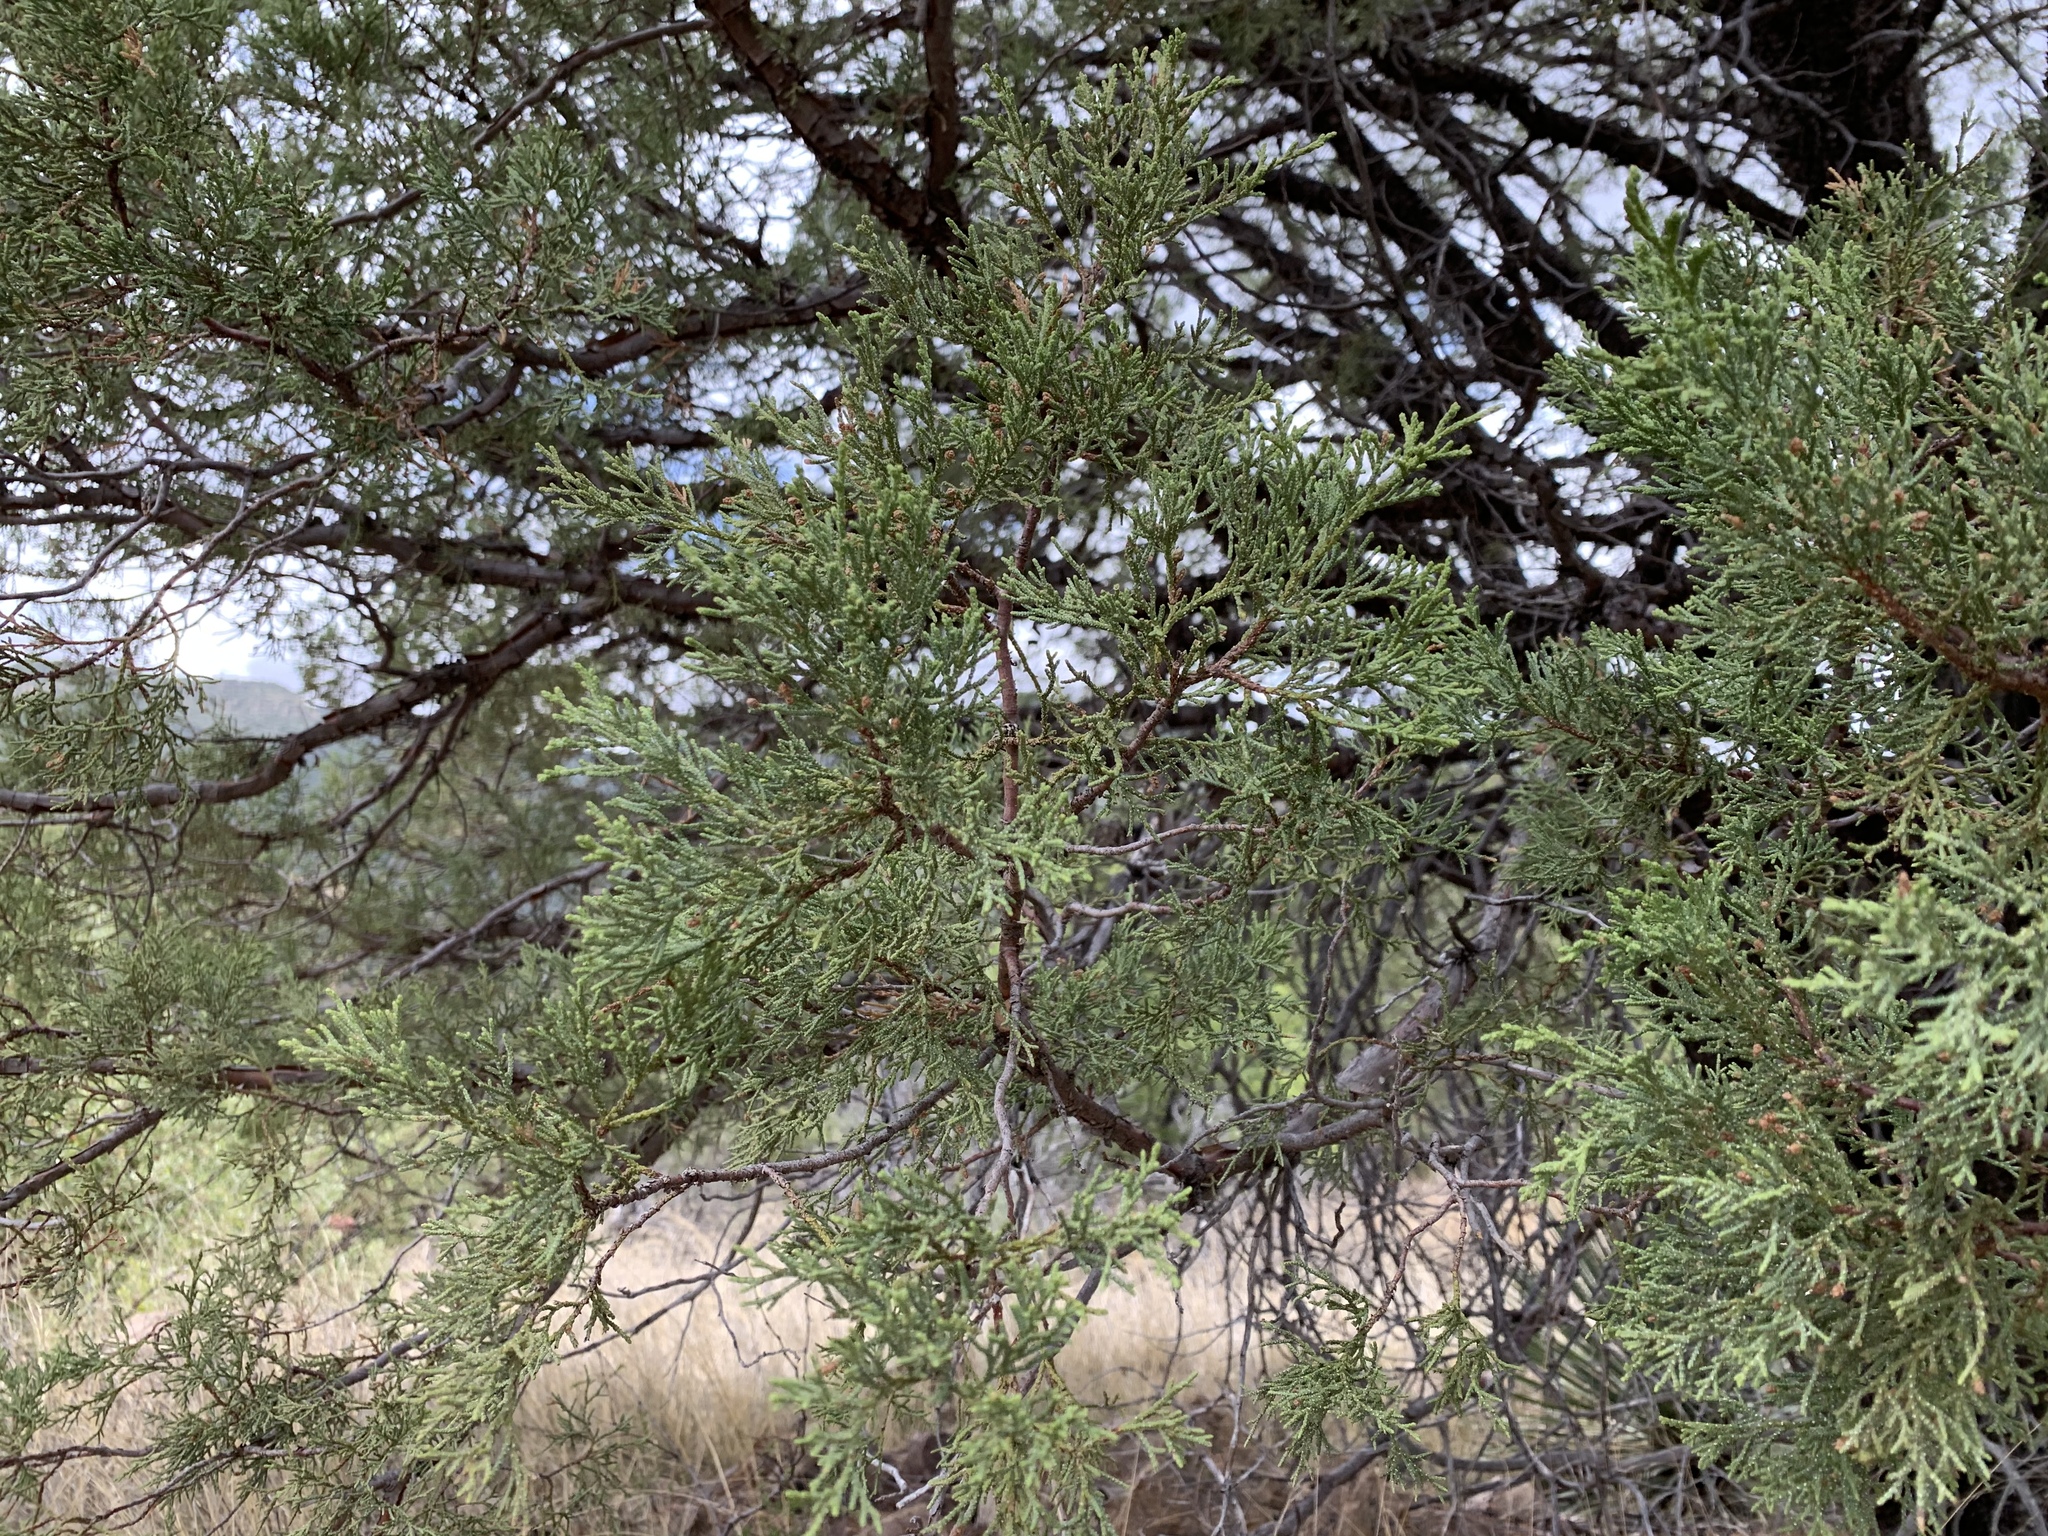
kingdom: Plantae
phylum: Tracheophyta
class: Pinopsida
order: Pinales
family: Cupressaceae
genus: Juniperus
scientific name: Juniperus deppeana
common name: Alligator juniper
